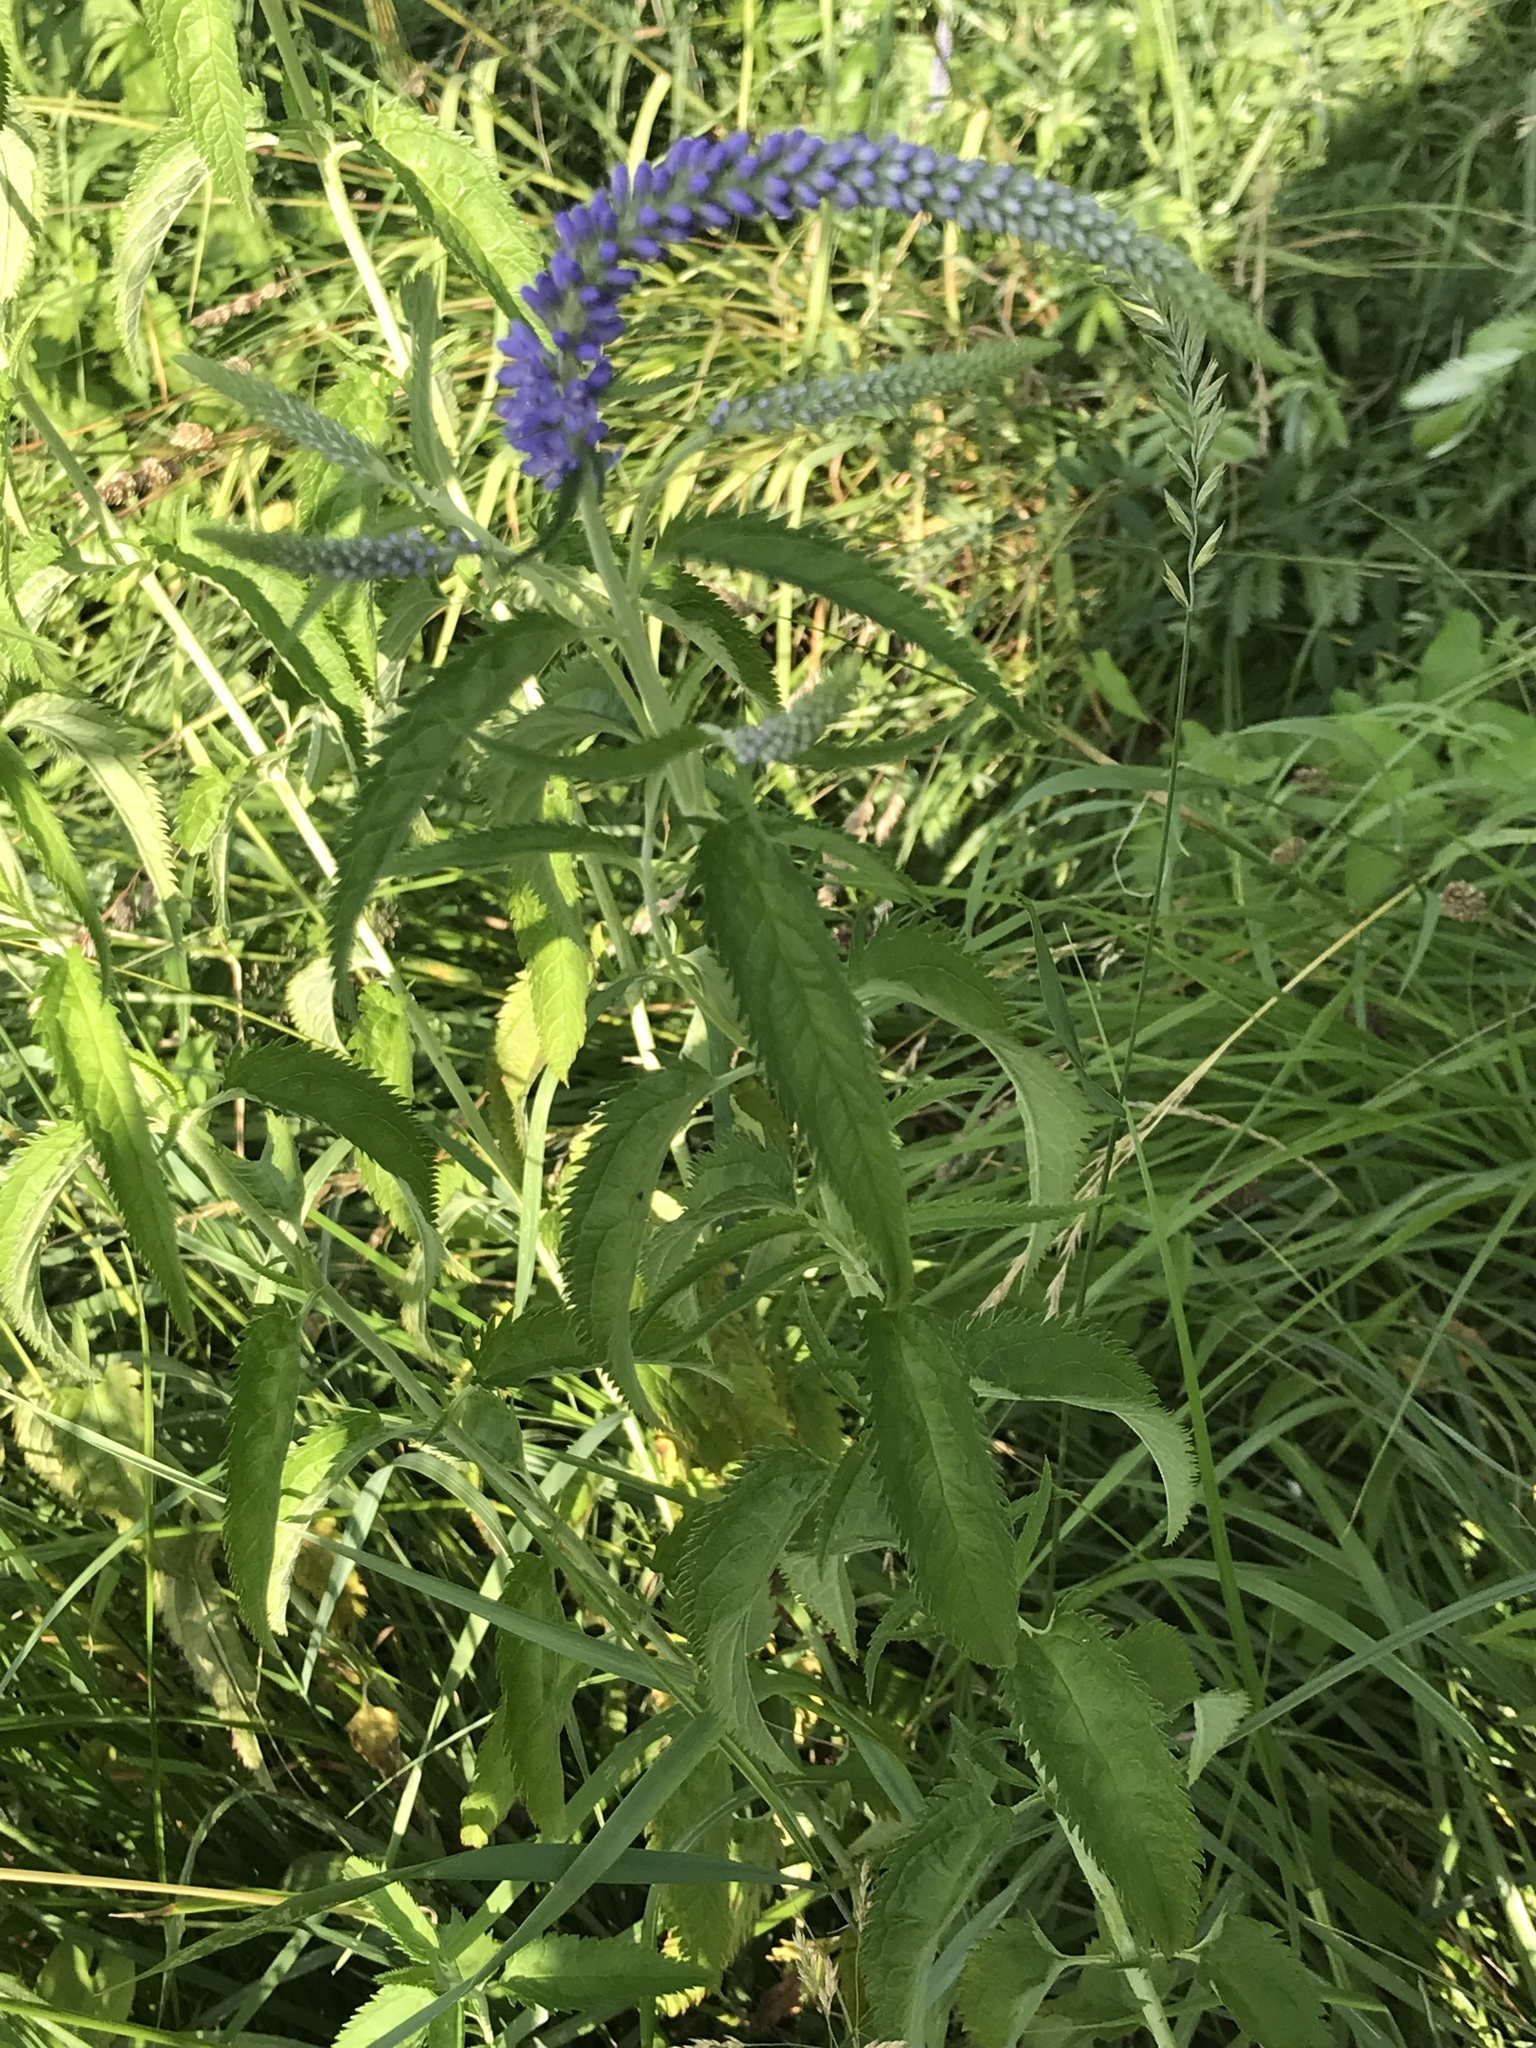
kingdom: Plantae
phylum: Tracheophyta
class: Magnoliopsida
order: Lamiales
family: Plantaginaceae
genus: Veronica
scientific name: Veronica longifolia
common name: Garden speedwell
